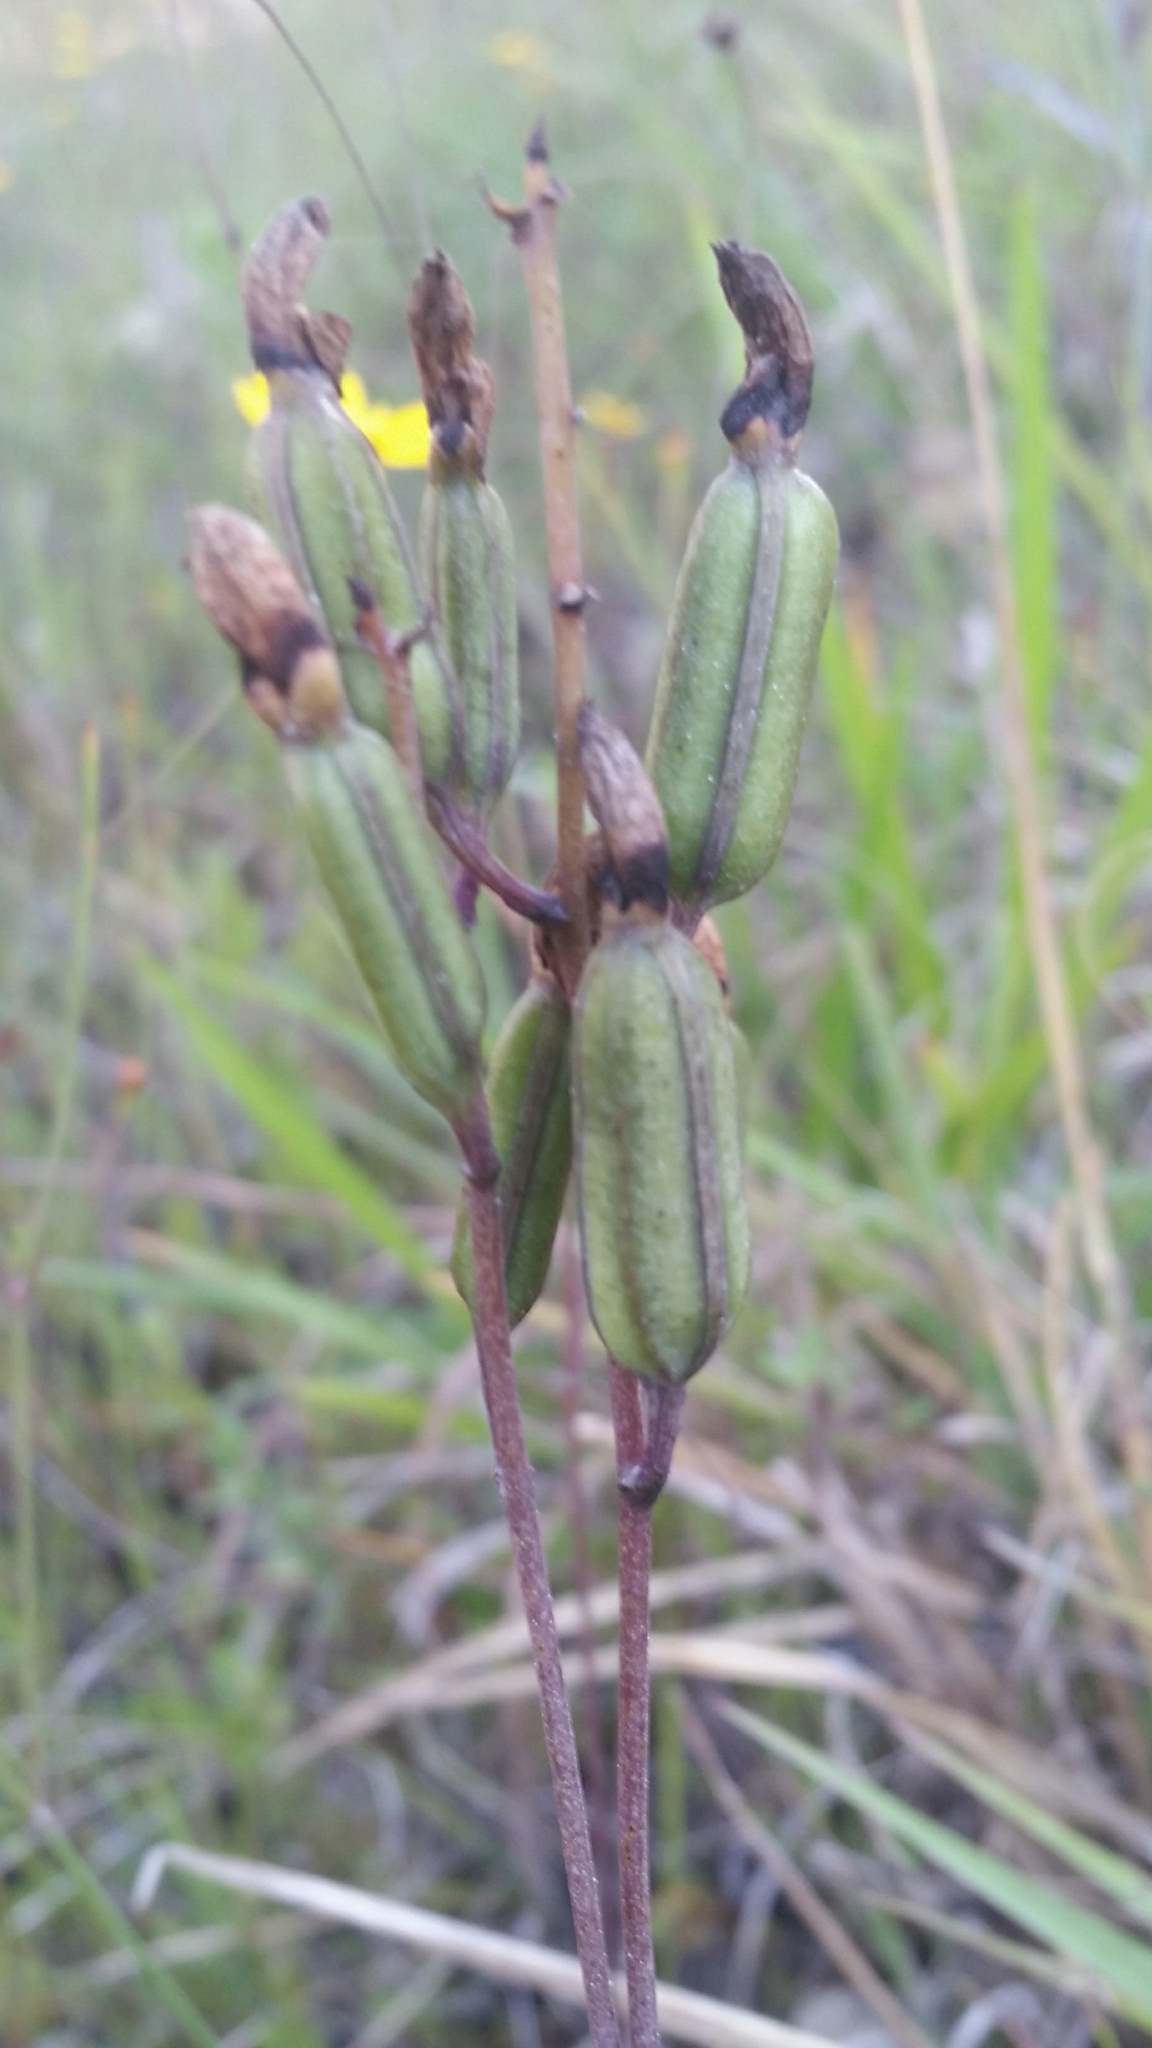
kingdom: Plantae
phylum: Tracheophyta
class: Liliopsida
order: Asparagales
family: Orchidaceae
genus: Bletia
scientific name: Bletia purpurea
